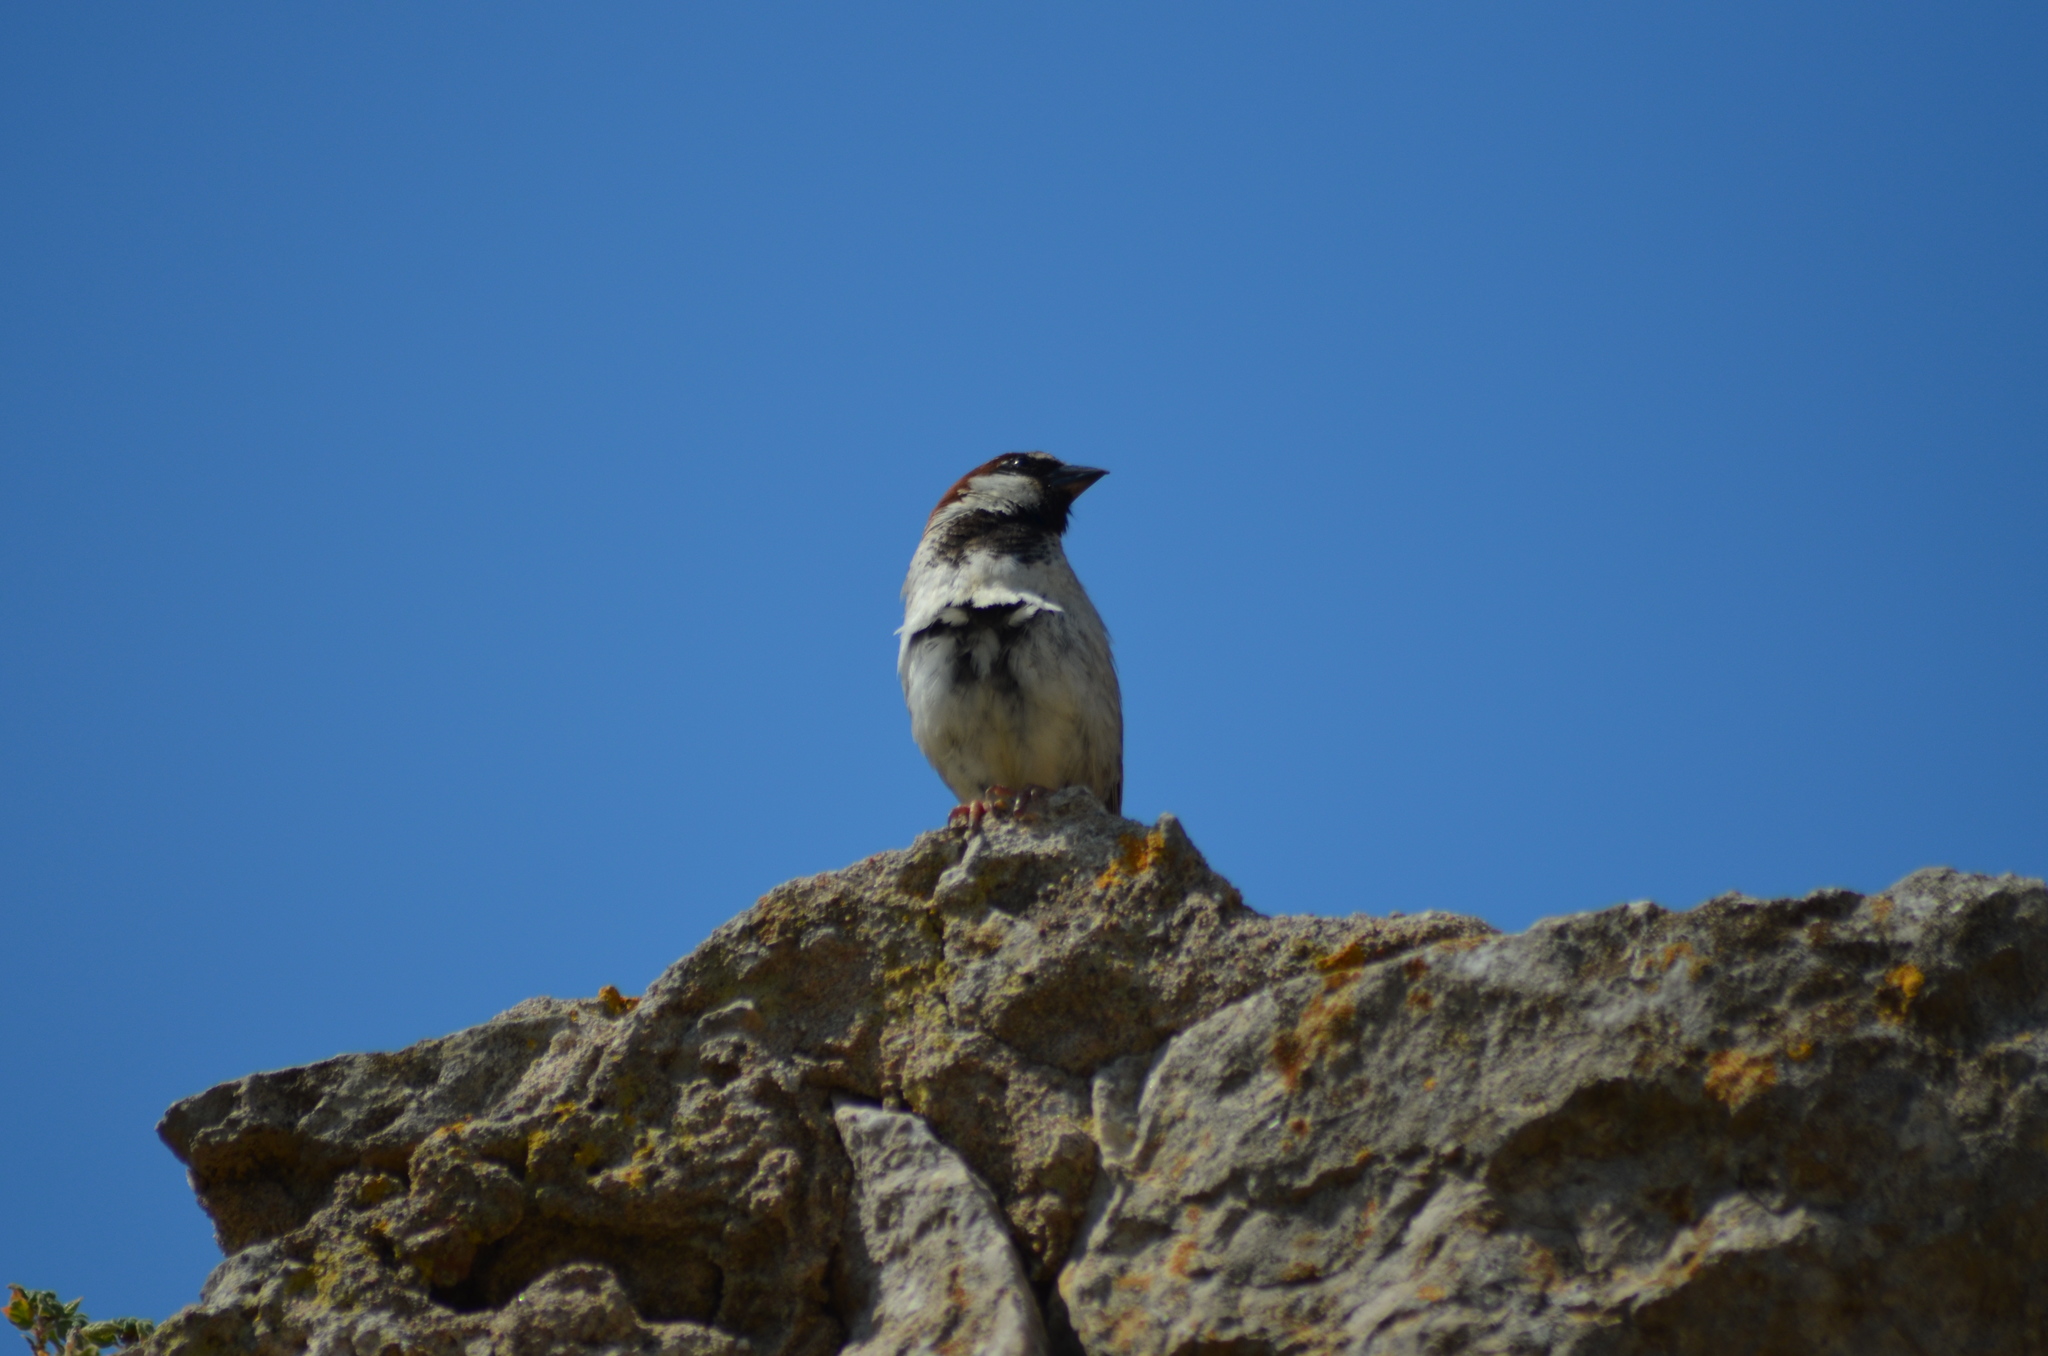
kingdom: Animalia
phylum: Chordata
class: Aves
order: Passeriformes
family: Passeridae
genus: Passer
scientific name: Passer domesticus
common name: House sparrow
